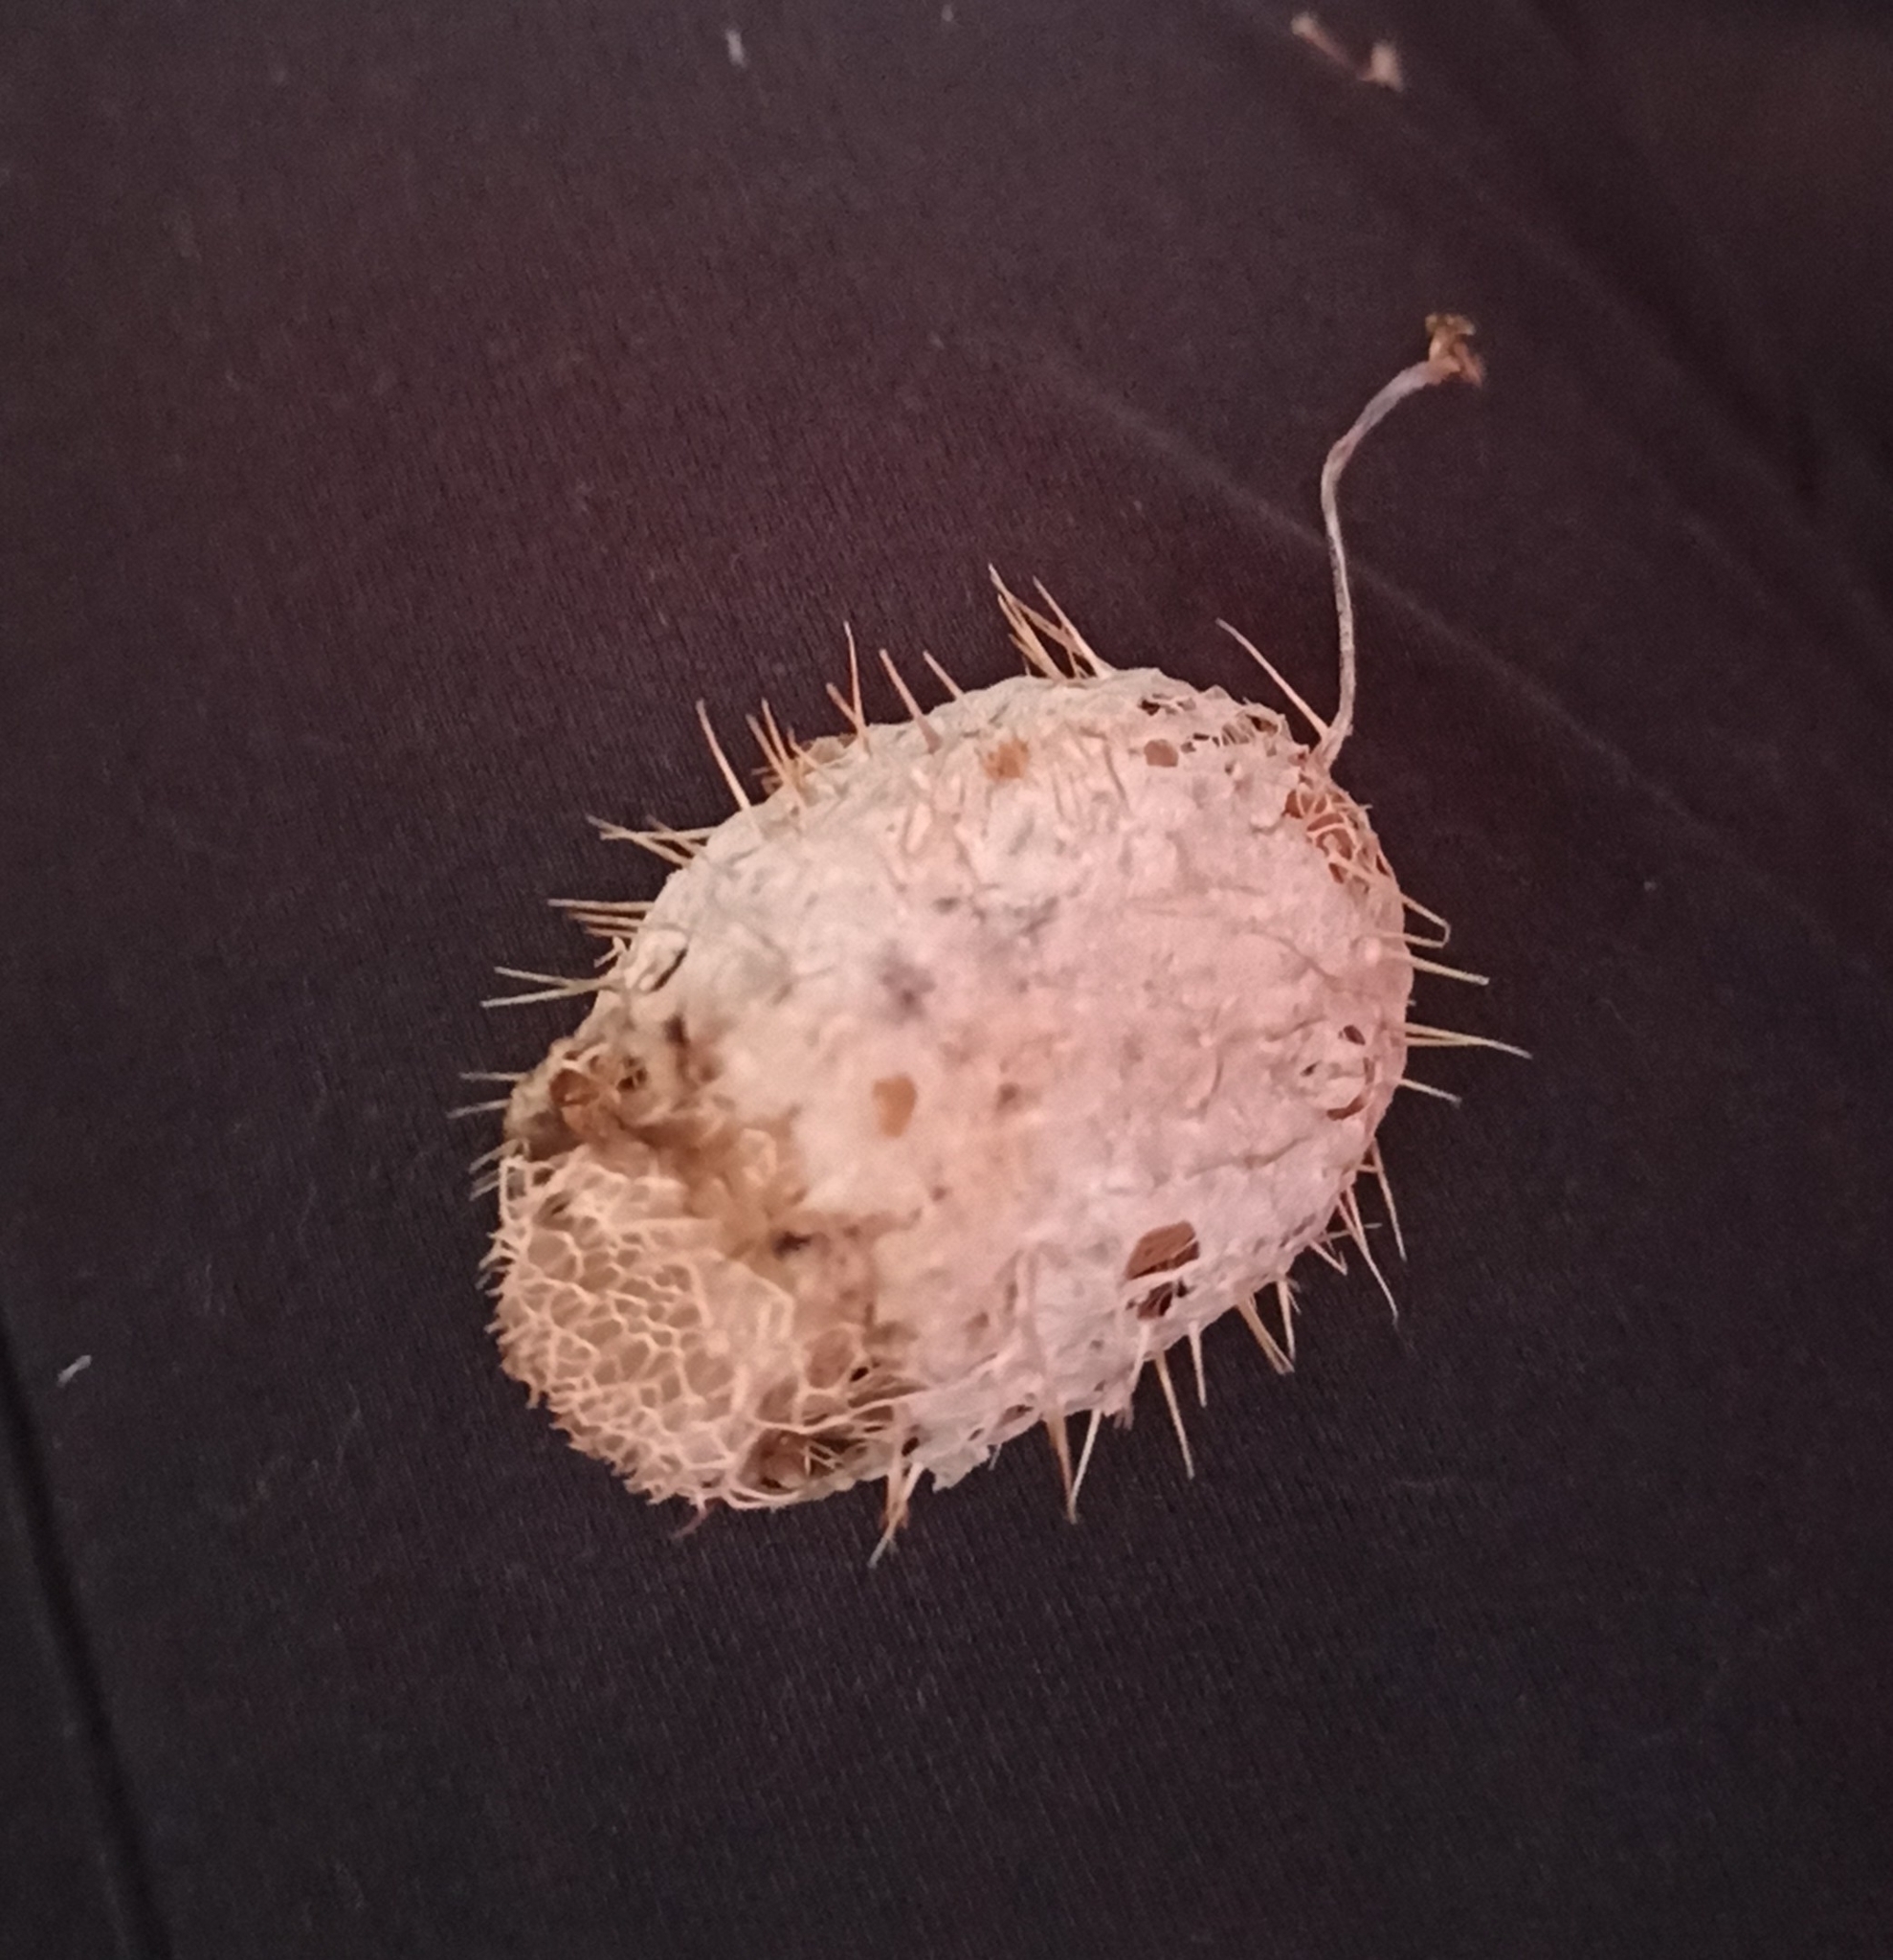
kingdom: Plantae
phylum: Tracheophyta
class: Magnoliopsida
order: Cucurbitales
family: Cucurbitaceae
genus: Echinocystis
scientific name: Echinocystis lobata
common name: Wild cucumber
